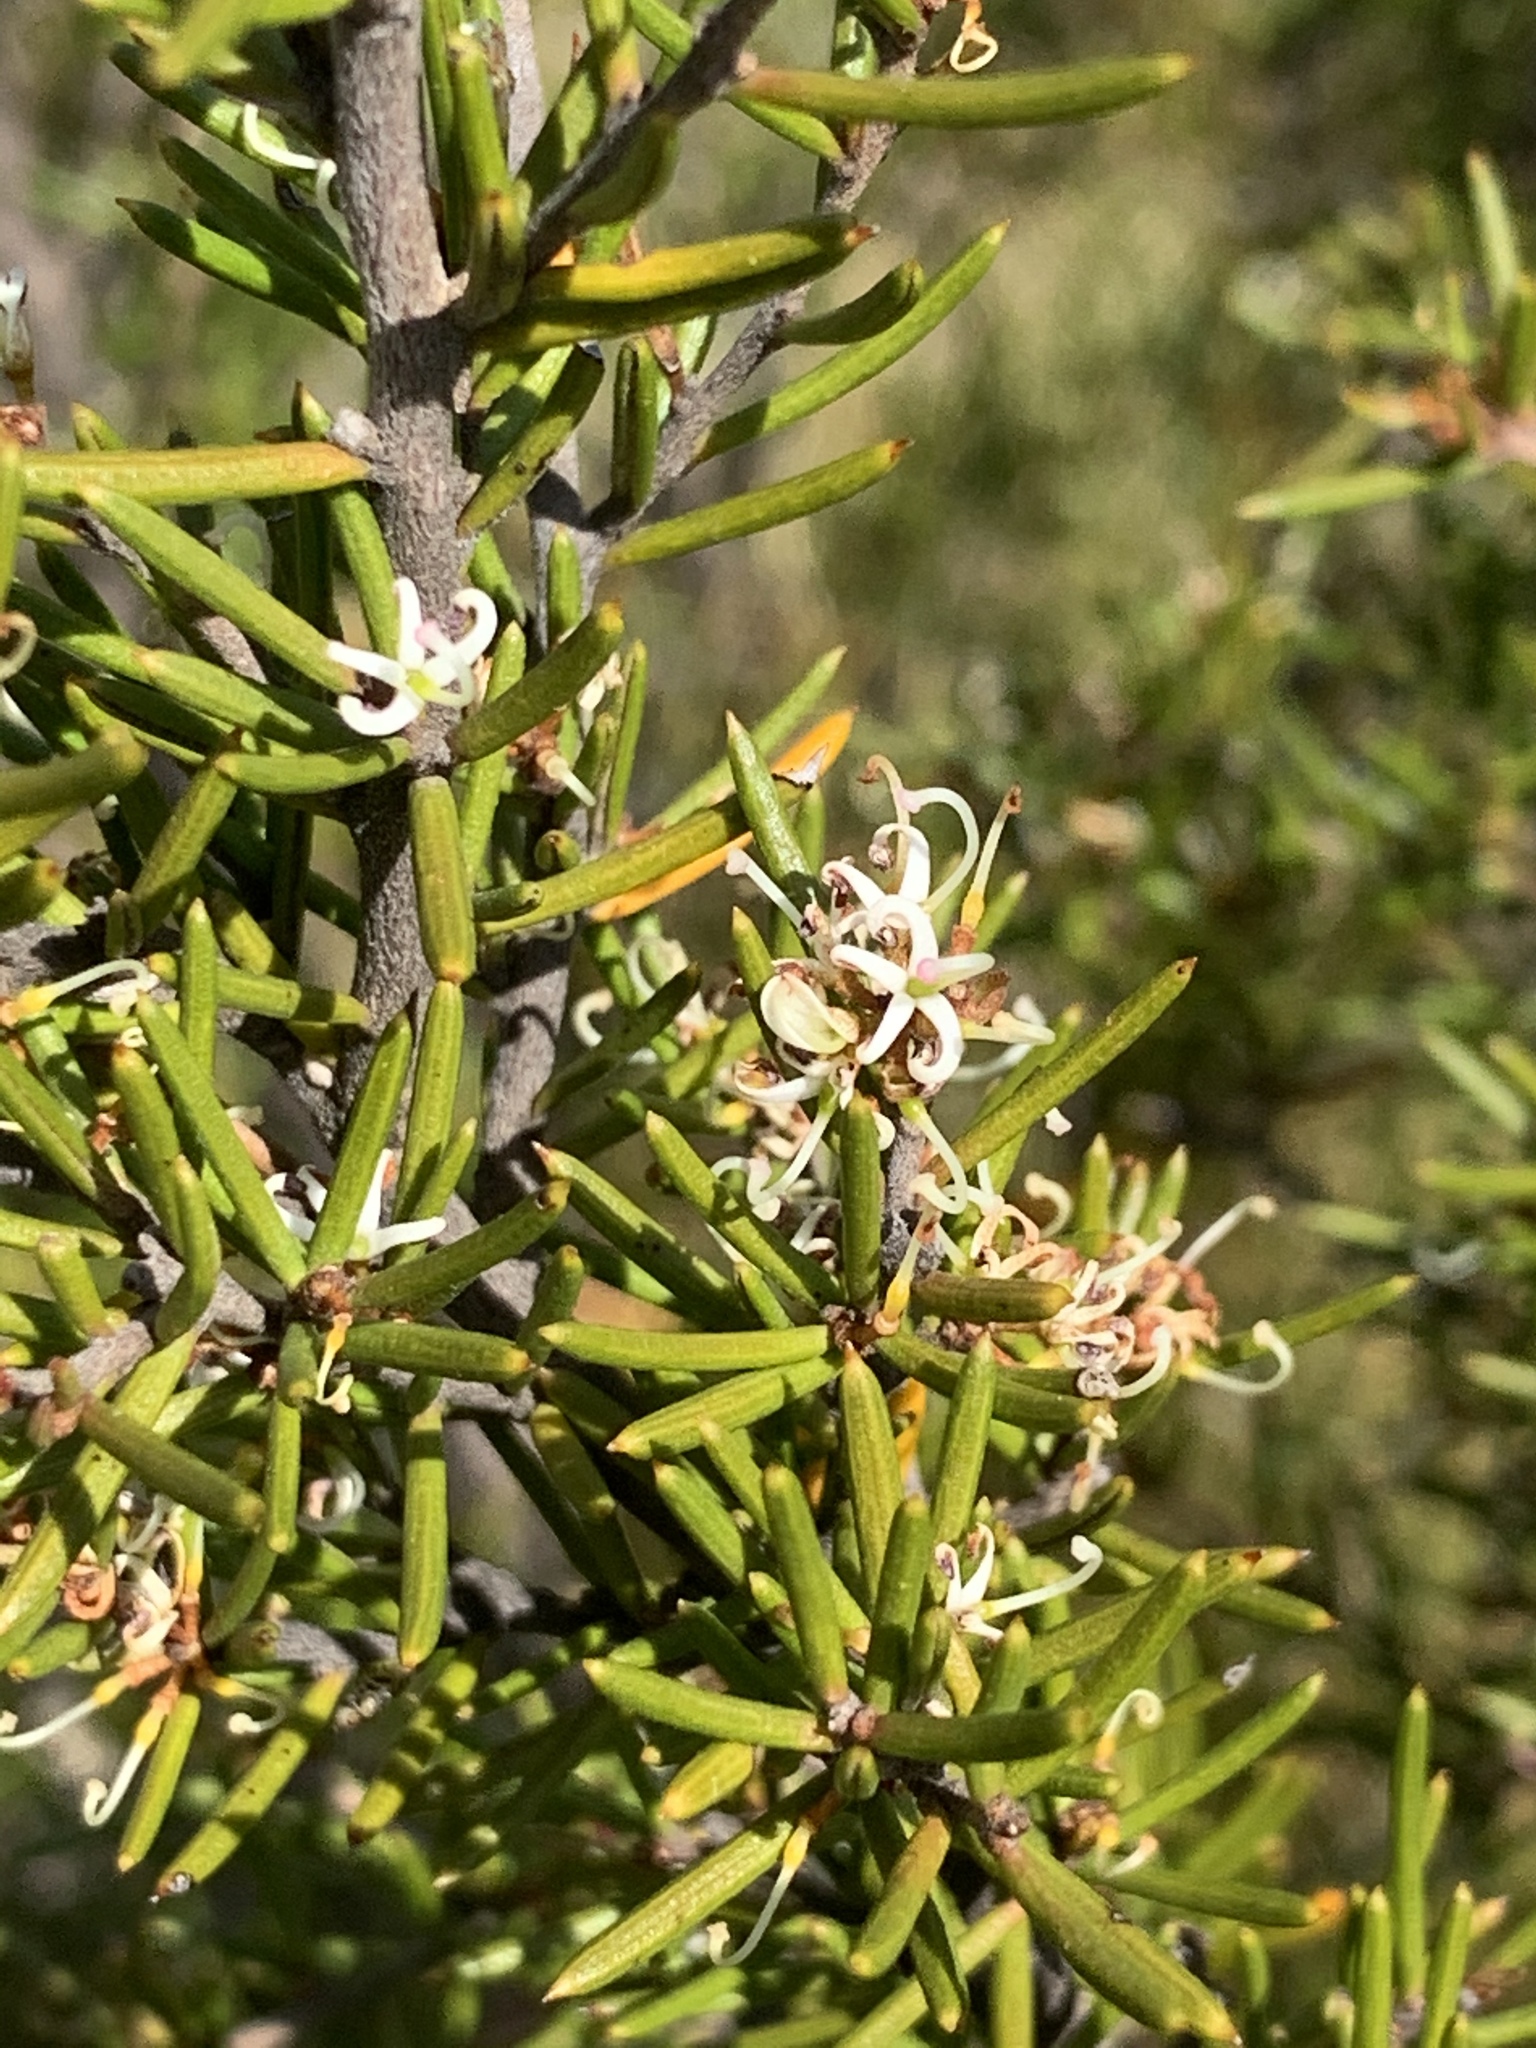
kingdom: Plantae
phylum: Tracheophyta
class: Magnoliopsida
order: Proteales
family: Proteaceae
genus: Grevillea
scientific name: Grevillea australis
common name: Alpine grevillea
